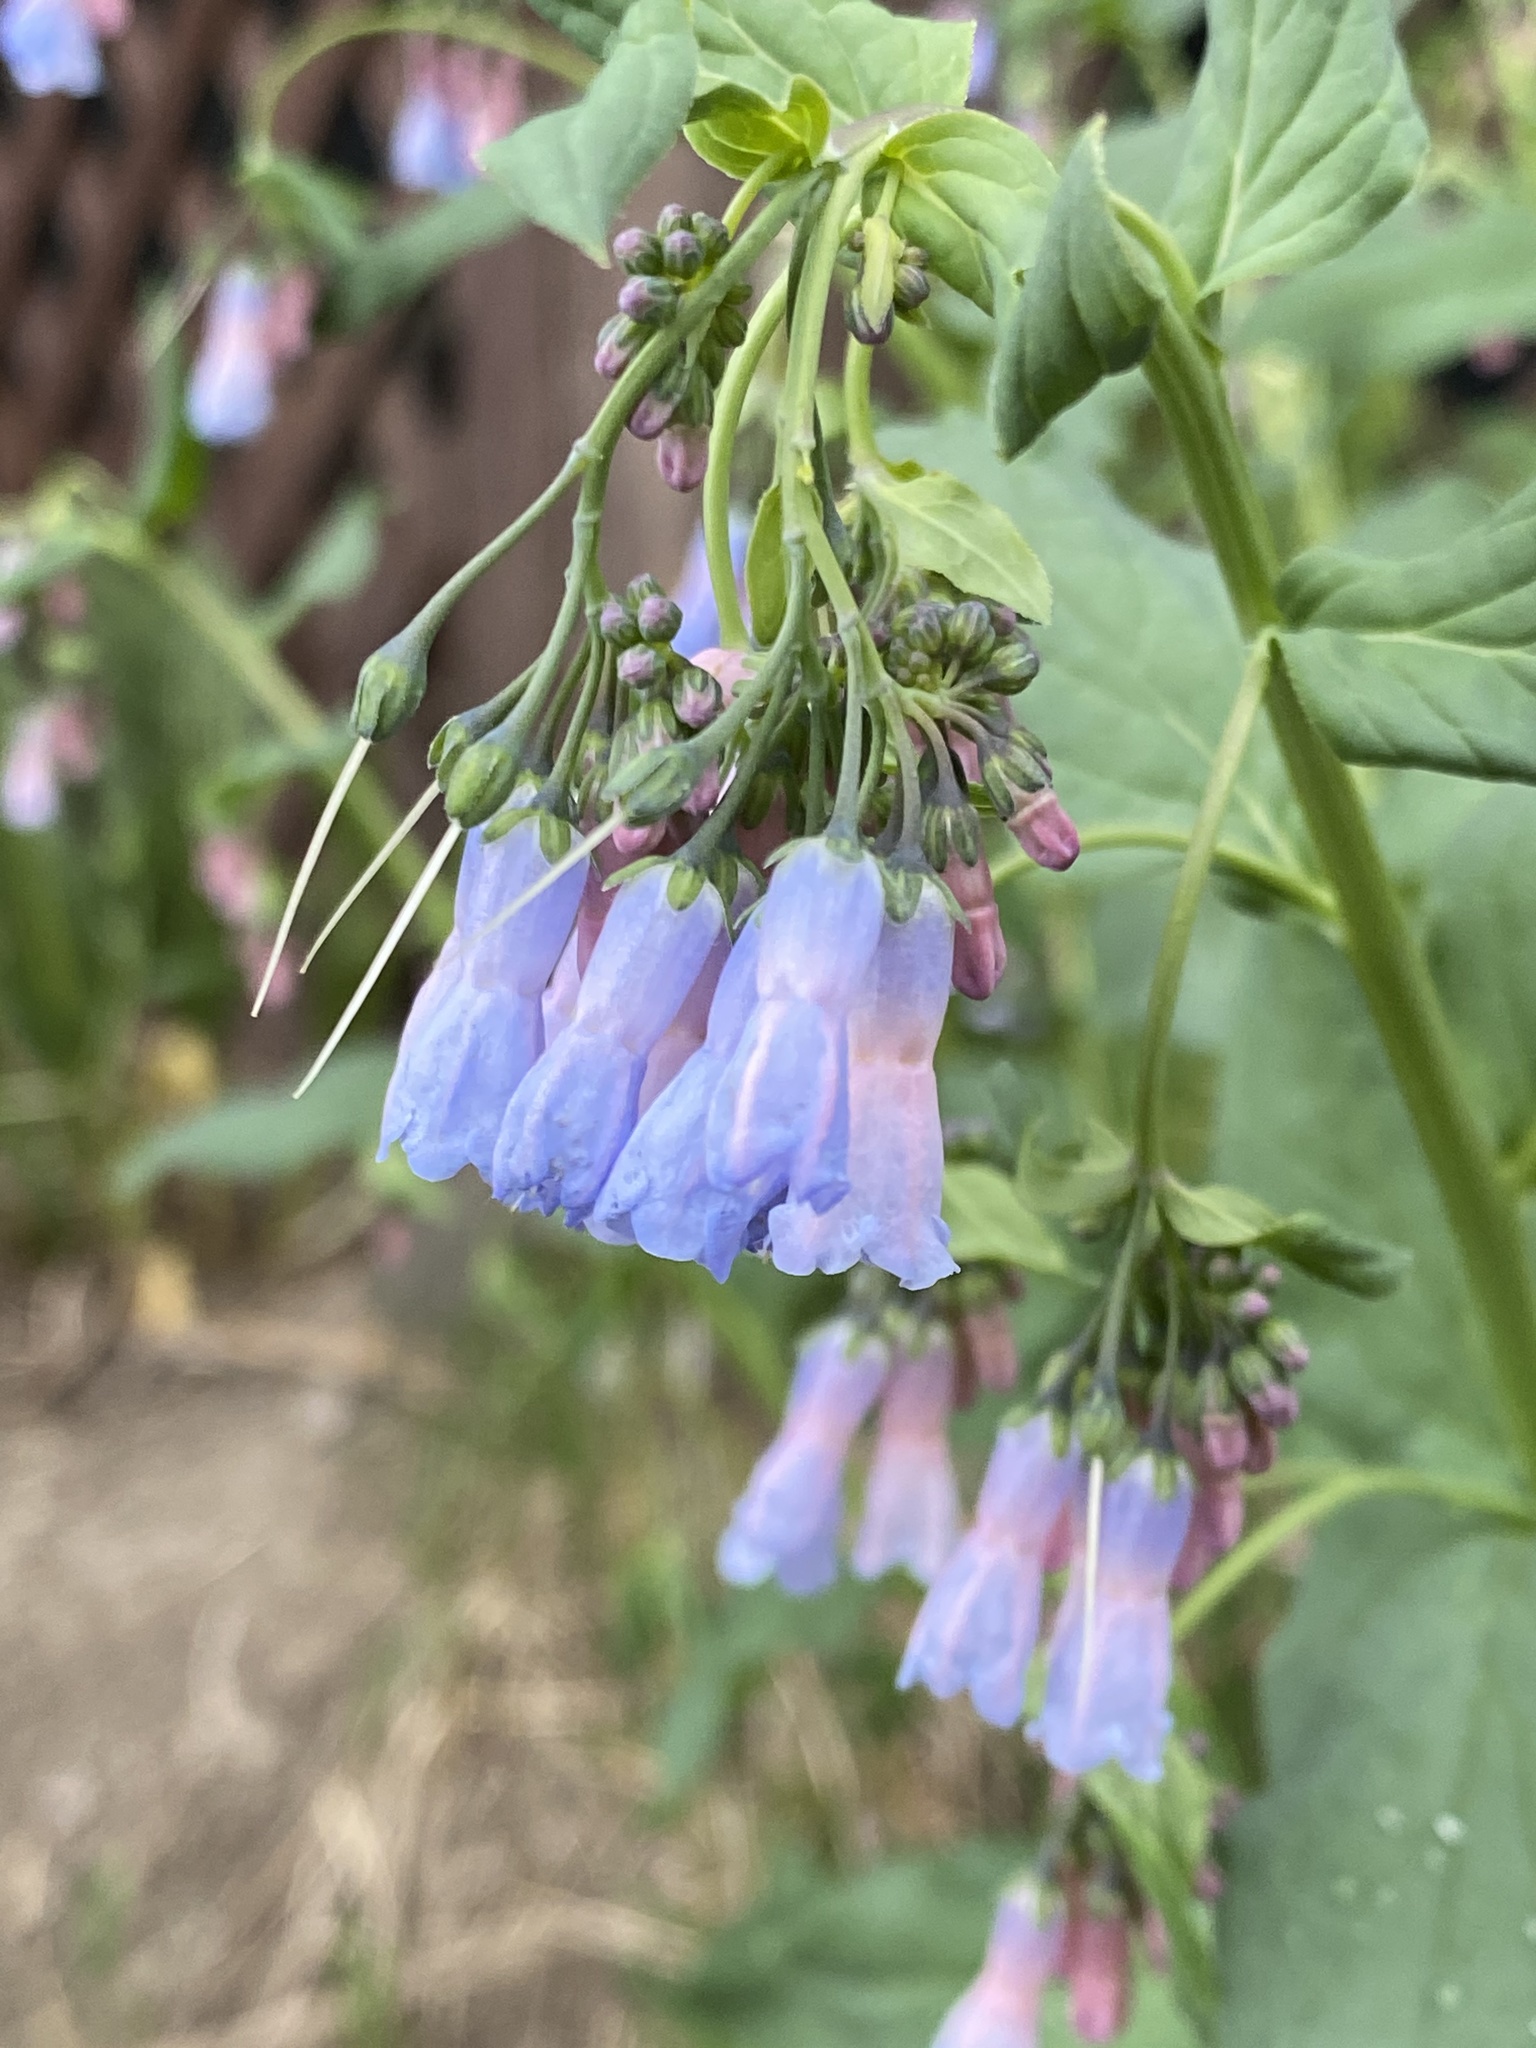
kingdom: Plantae
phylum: Tracheophyta
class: Magnoliopsida
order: Boraginales
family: Boraginaceae
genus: Mertensia
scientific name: Mertensia ciliata
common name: Tall chiming-bells
